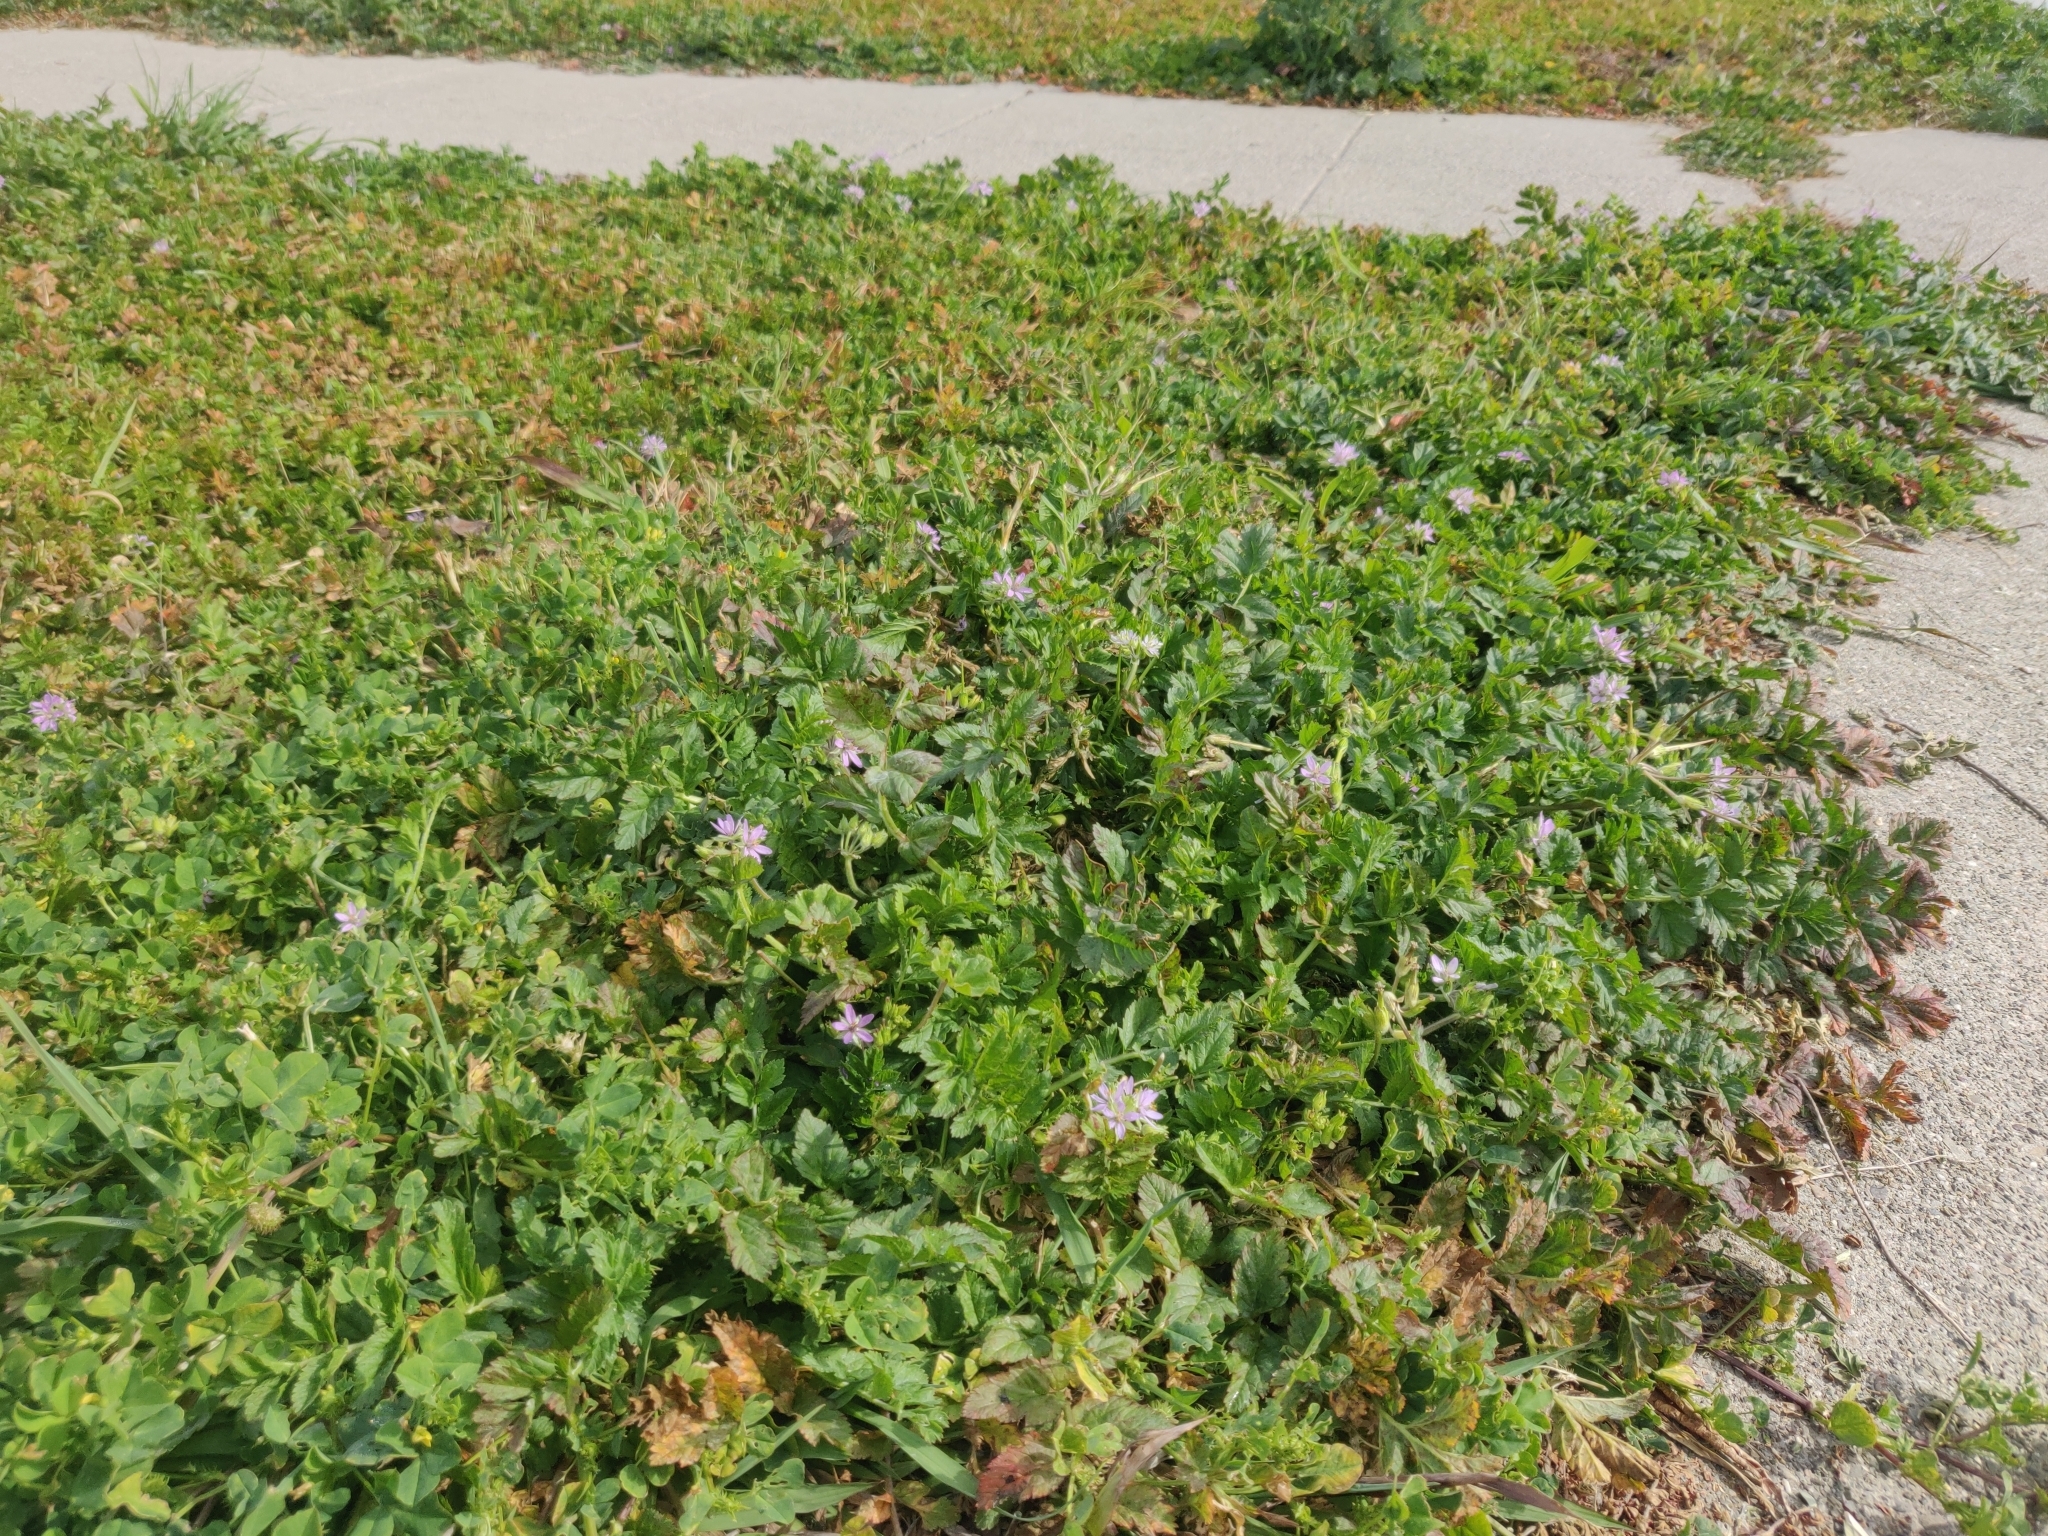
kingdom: Plantae
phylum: Tracheophyta
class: Magnoliopsida
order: Geraniales
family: Geraniaceae
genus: Erodium
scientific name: Erodium moschatum
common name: Musk stork's-bill
